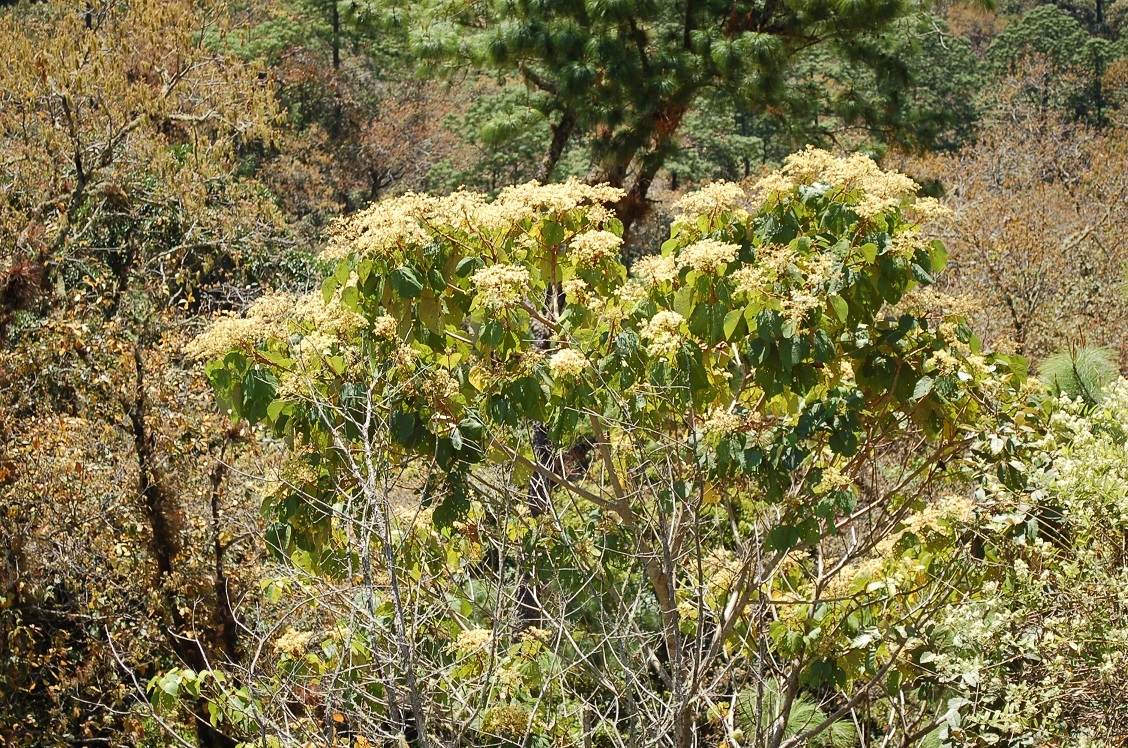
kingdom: Plantae
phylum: Tracheophyta
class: Magnoliopsida
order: Malvales
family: Malvaceae
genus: Heliocarpus
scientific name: Heliocarpus americanus
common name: White moho
